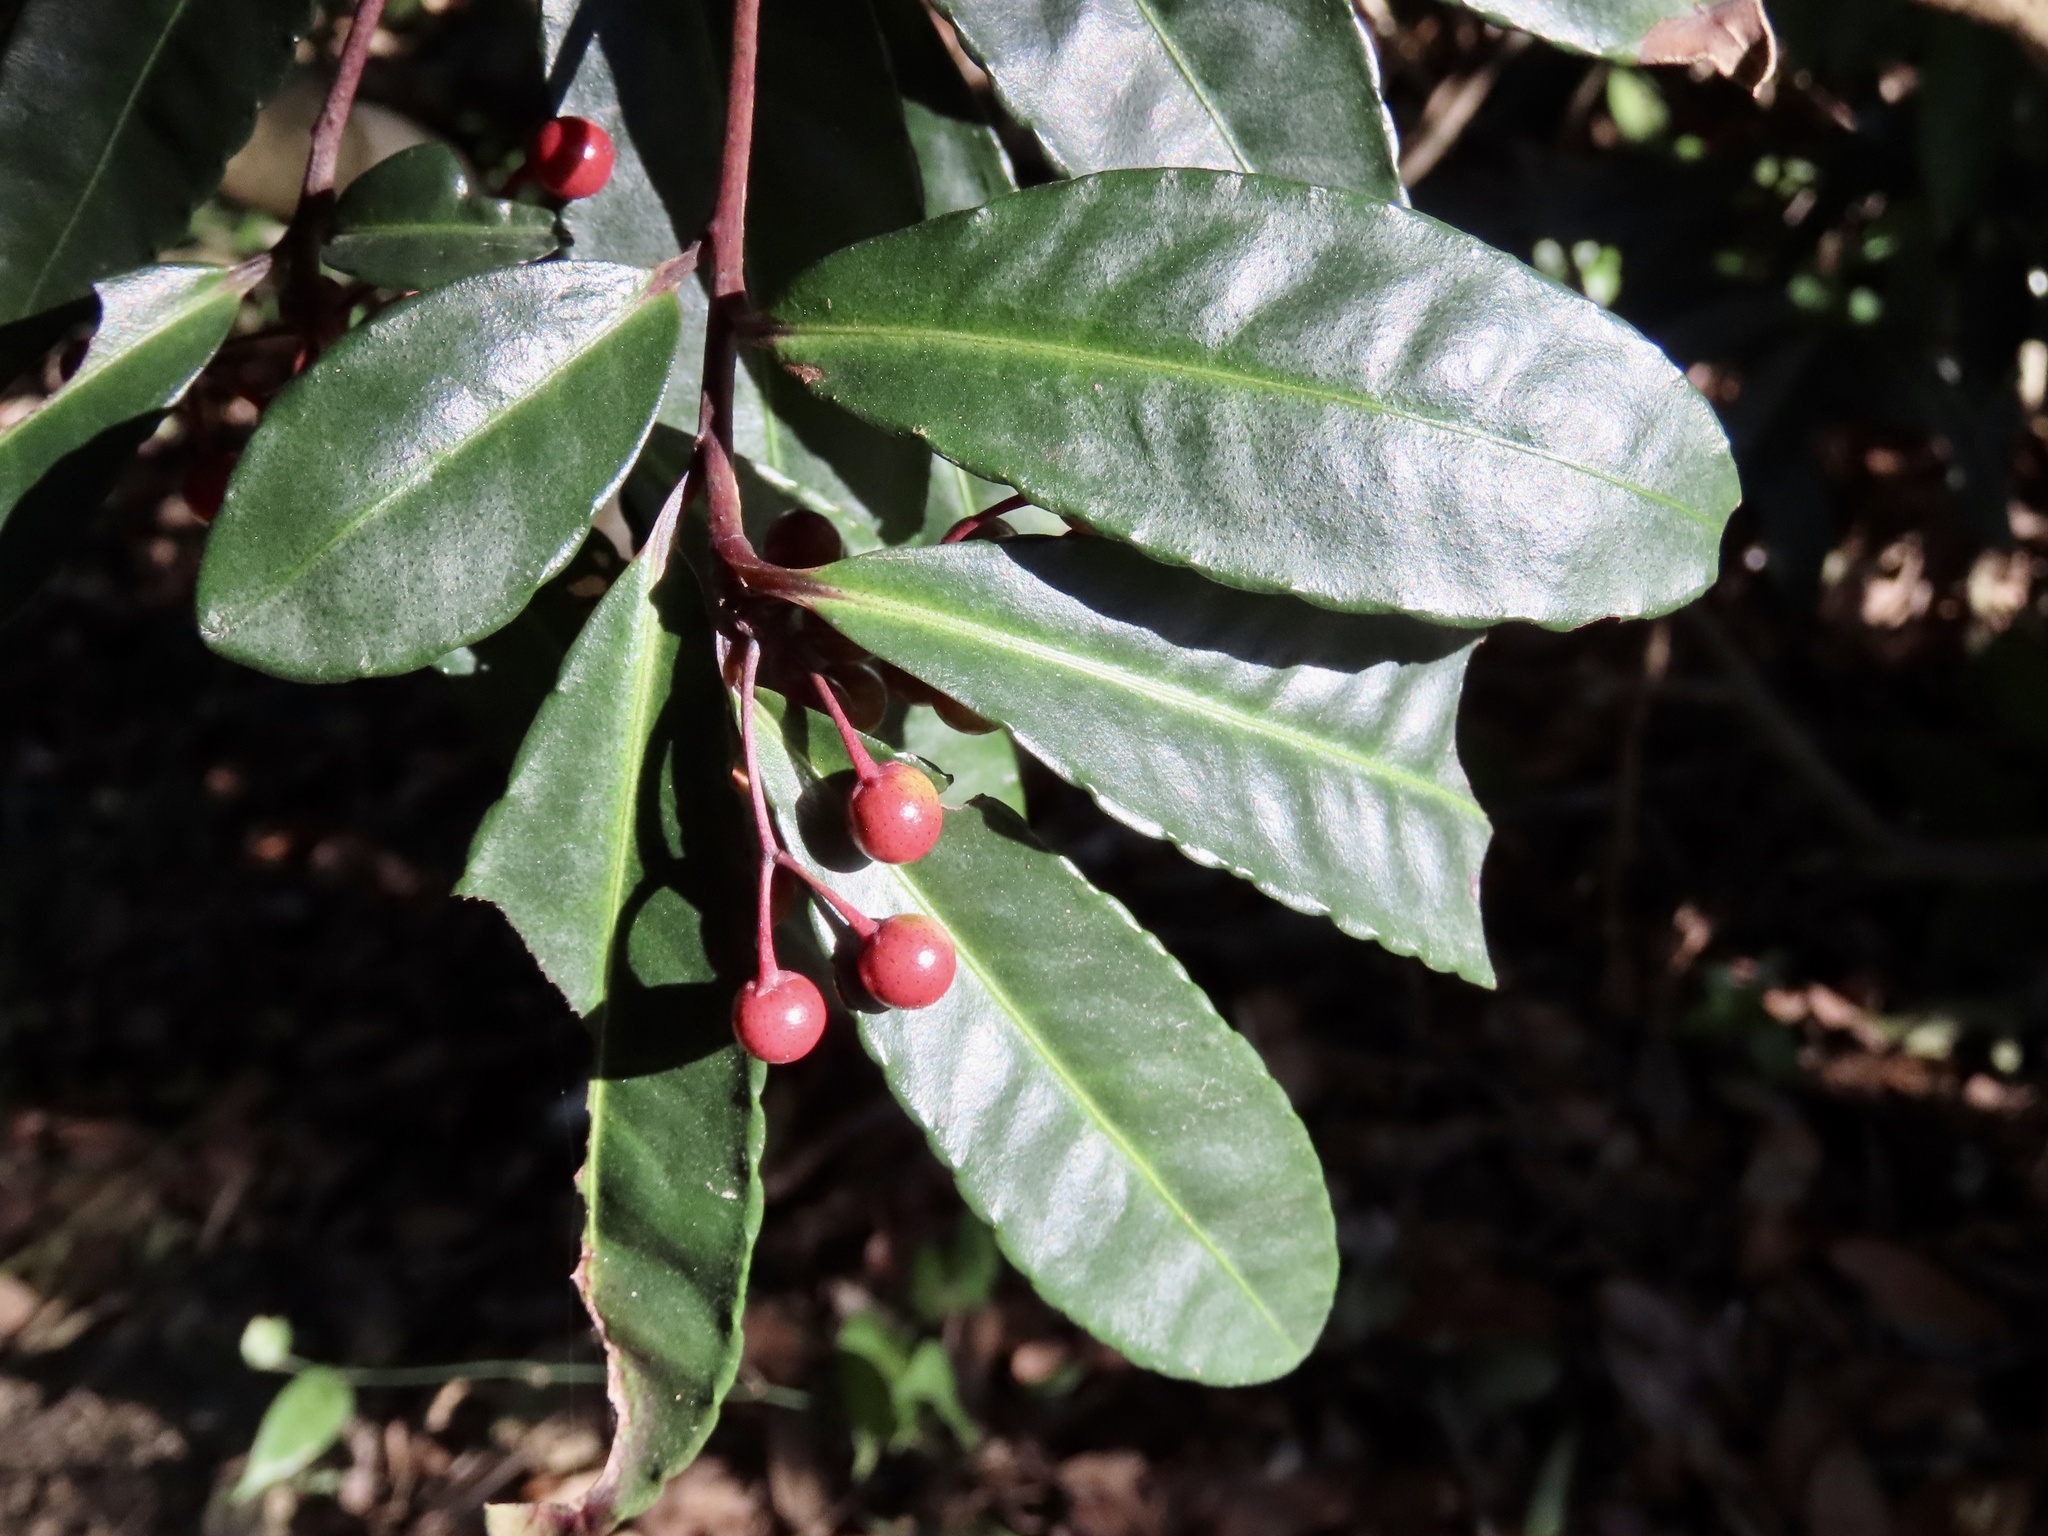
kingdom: Plantae
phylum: Tracheophyta
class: Magnoliopsida
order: Ericales
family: Primulaceae
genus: Ardisia
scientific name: Ardisia crenata
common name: Hen's eyes
